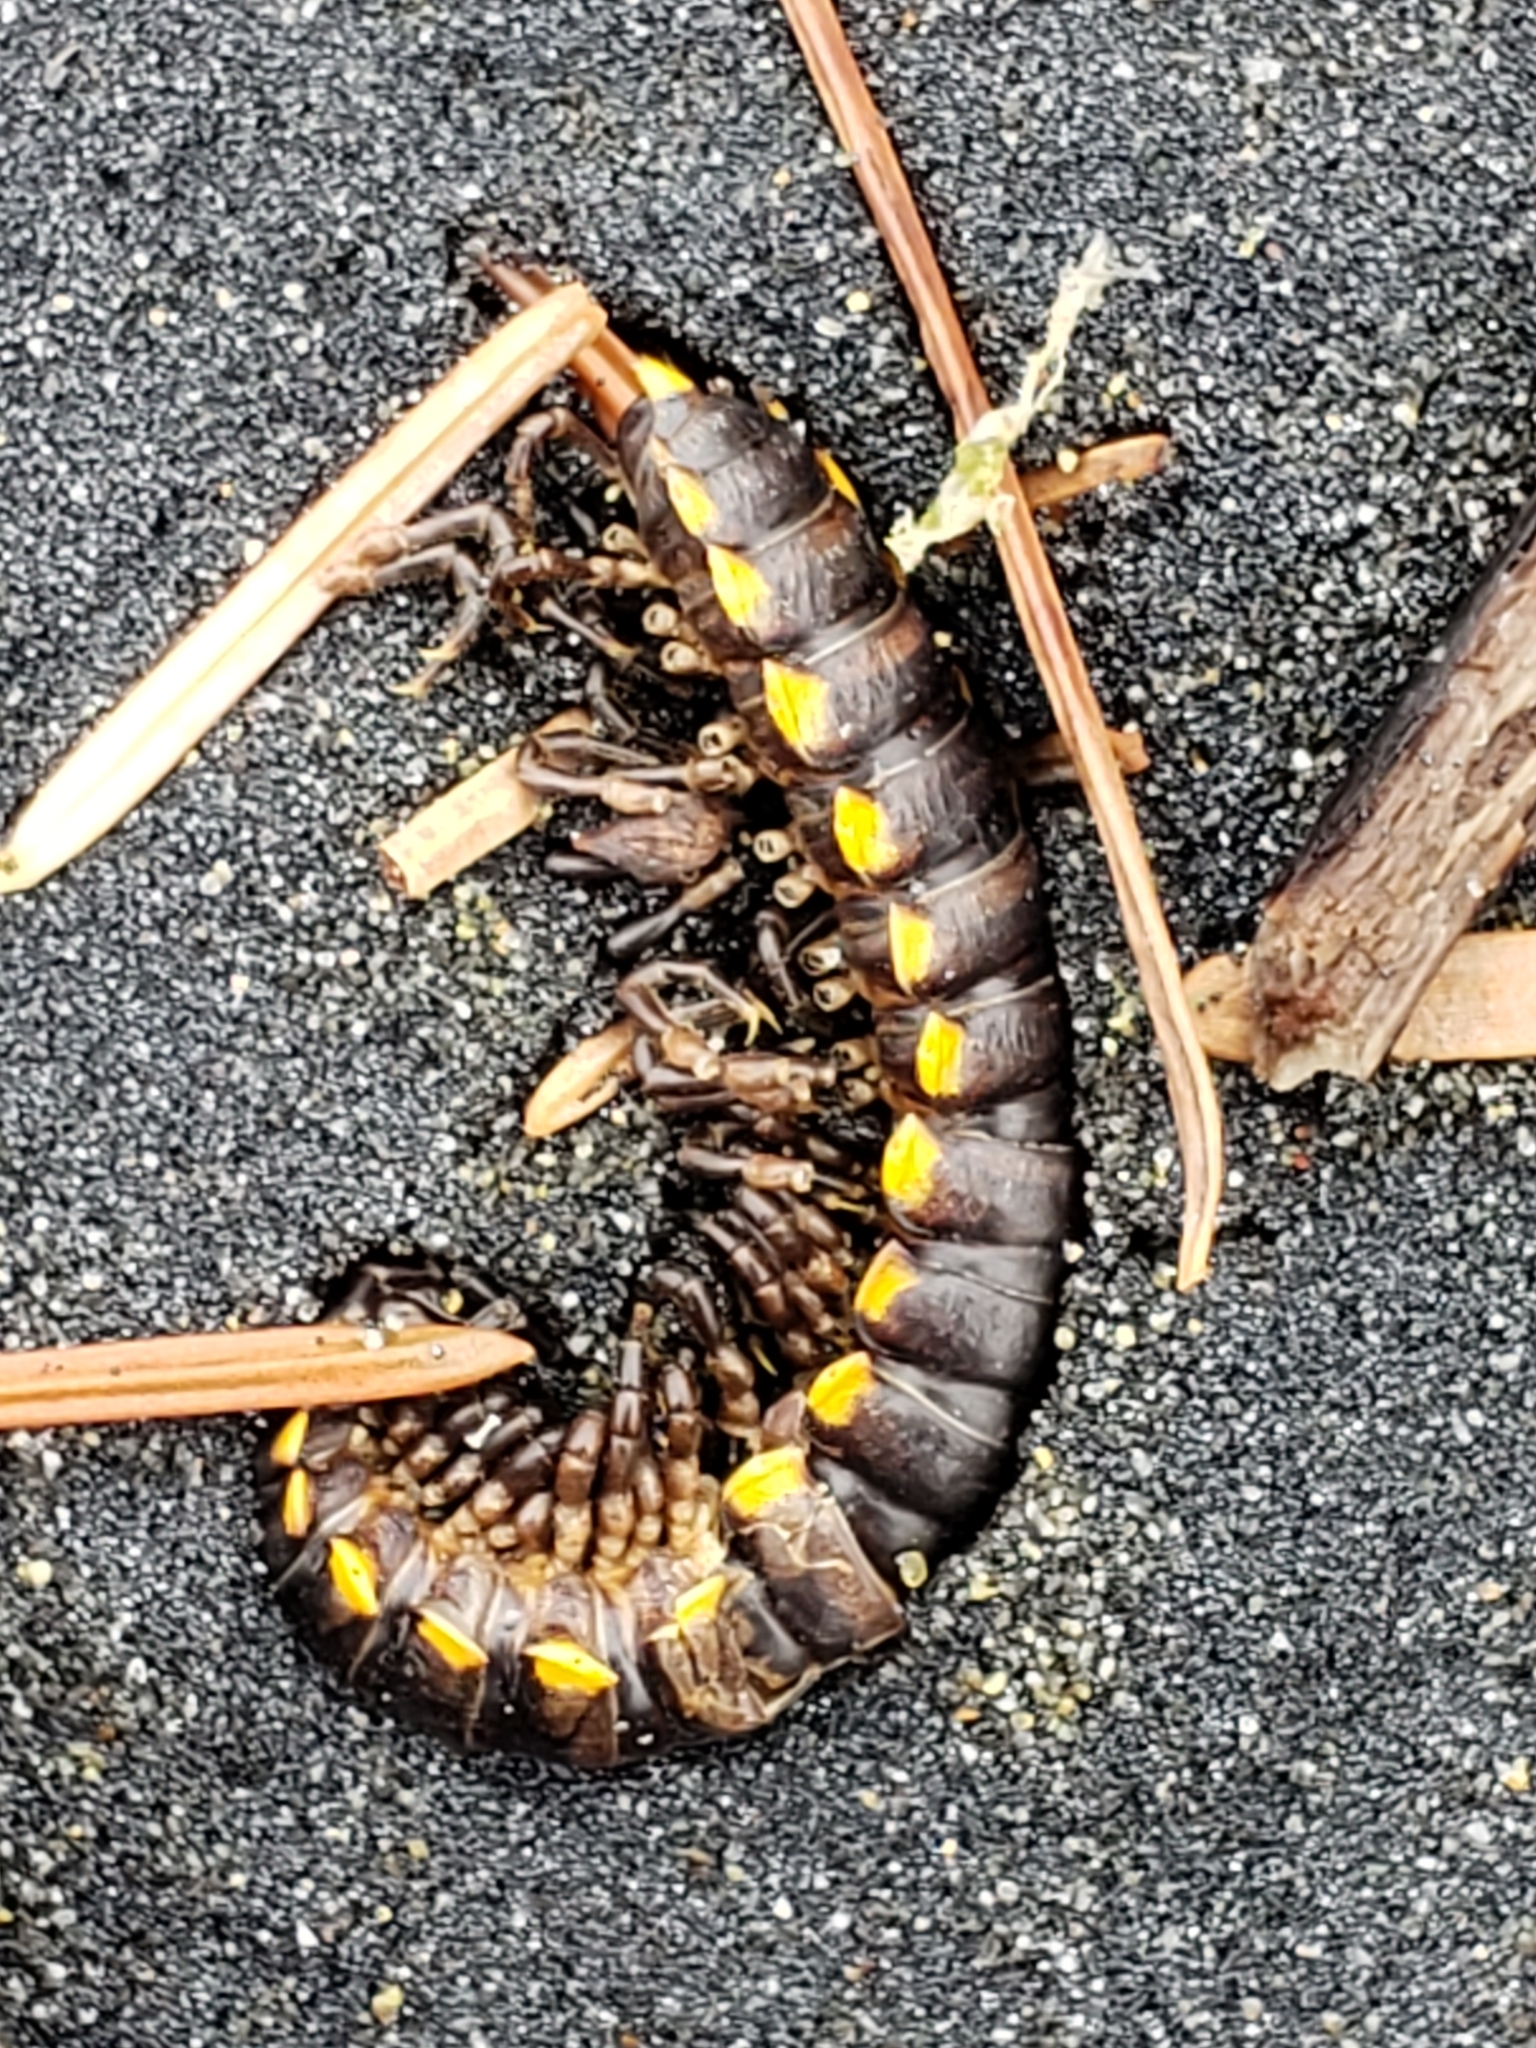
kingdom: Animalia
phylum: Arthropoda
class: Diplopoda
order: Polydesmida
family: Xystodesmidae
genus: Harpaphe
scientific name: Harpaphe haydeniana
